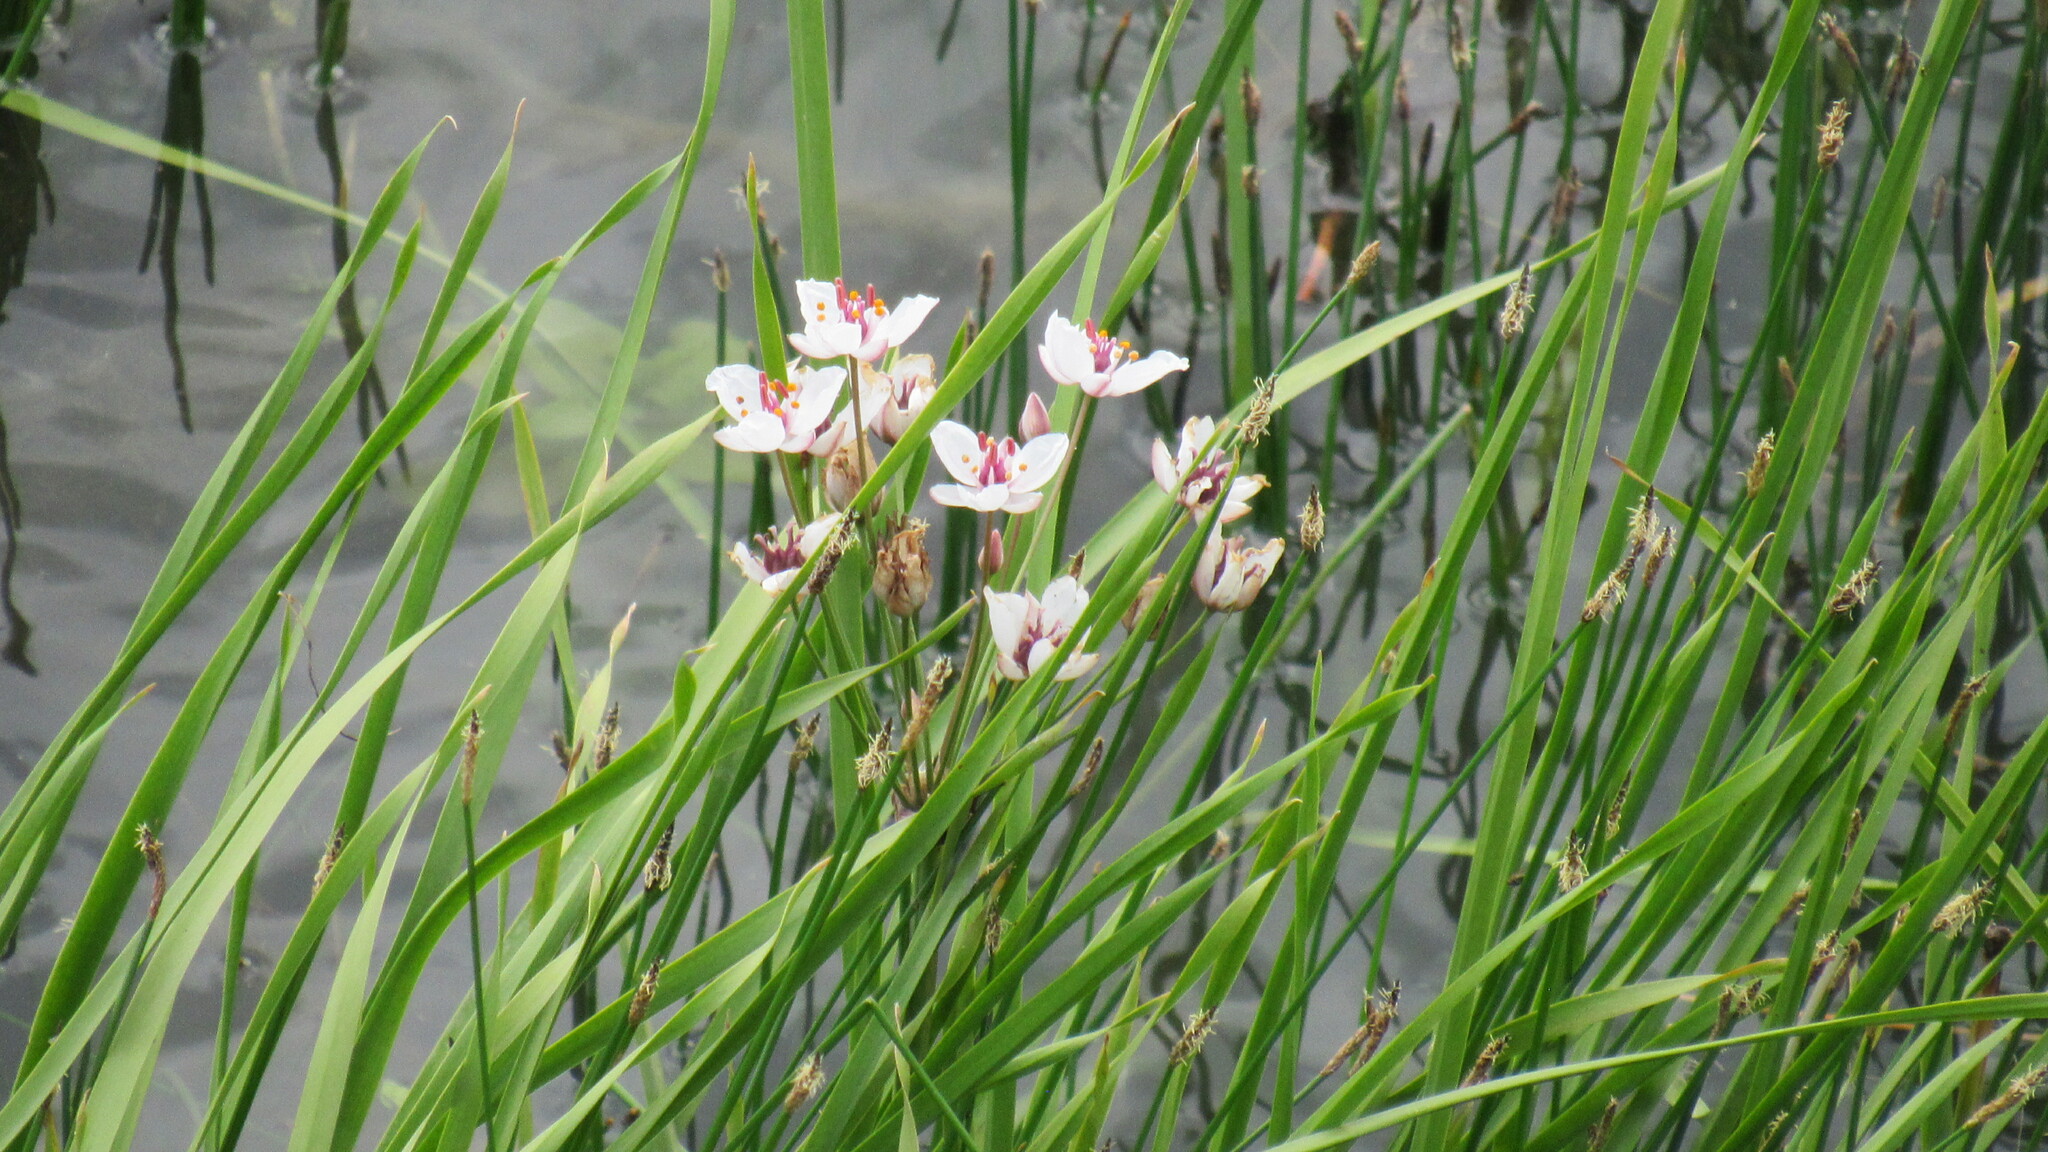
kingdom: Plantae
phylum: Tracheophyta
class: Liliopsida
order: Alismatales
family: Butomaceae
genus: Butomus
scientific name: Butomus umbellatus
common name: Flowering-rush
